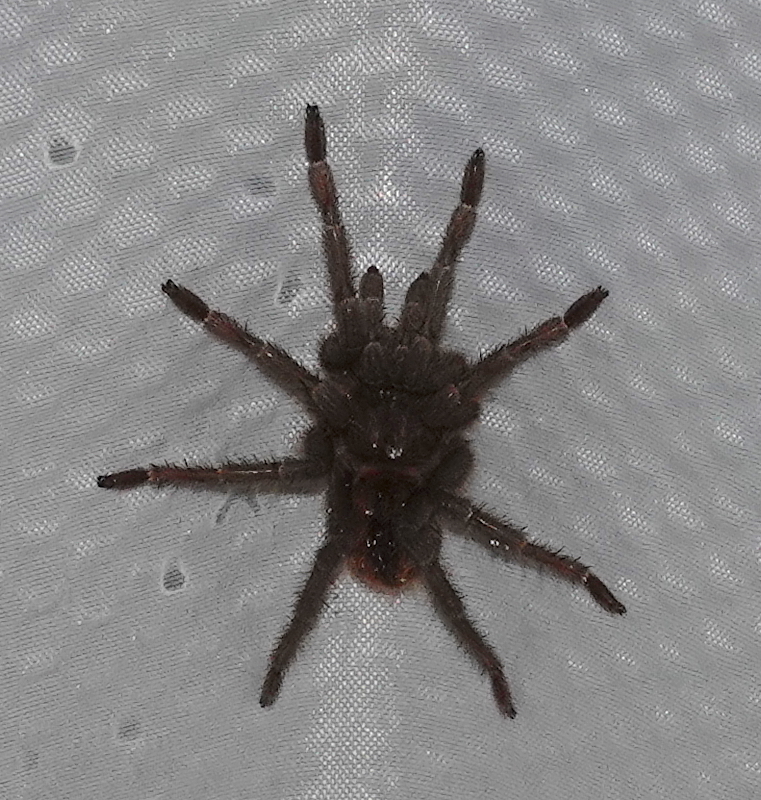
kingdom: Animalia
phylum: Arthropoda
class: Arachnida
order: Araneae
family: Theraphosidae
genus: Kankuamo
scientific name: Kankuamo marquezi
